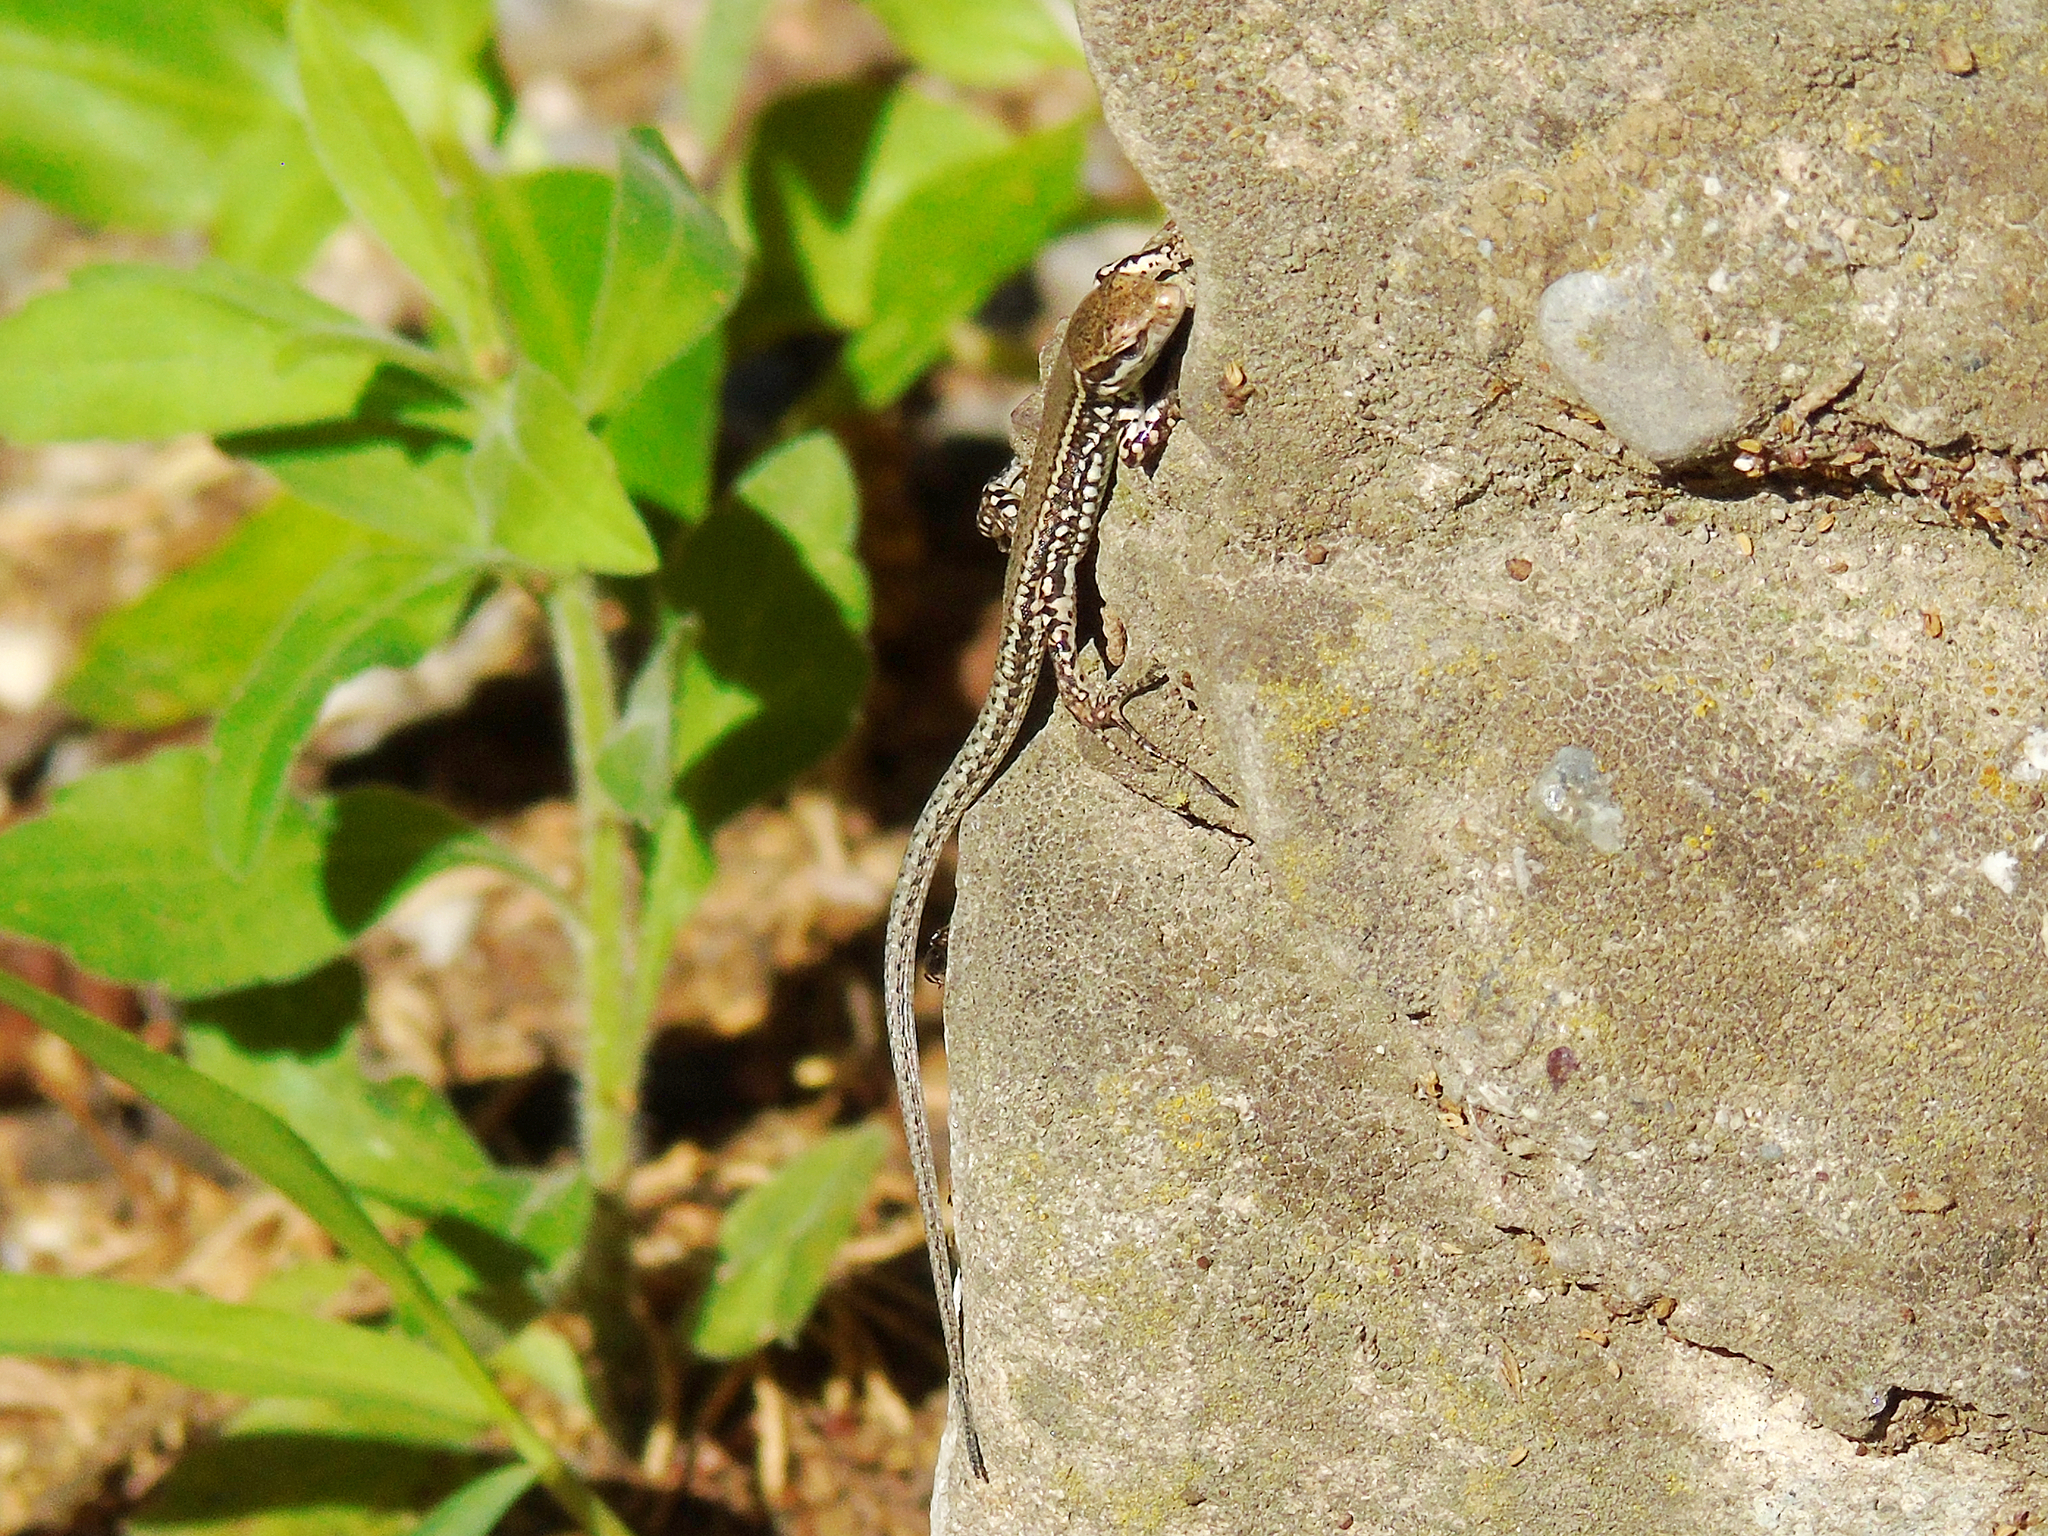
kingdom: Animalia
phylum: Chordata
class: Squamata
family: Lacertidae
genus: Podarcis
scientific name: Podarcis muralis
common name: Common wall lizard
